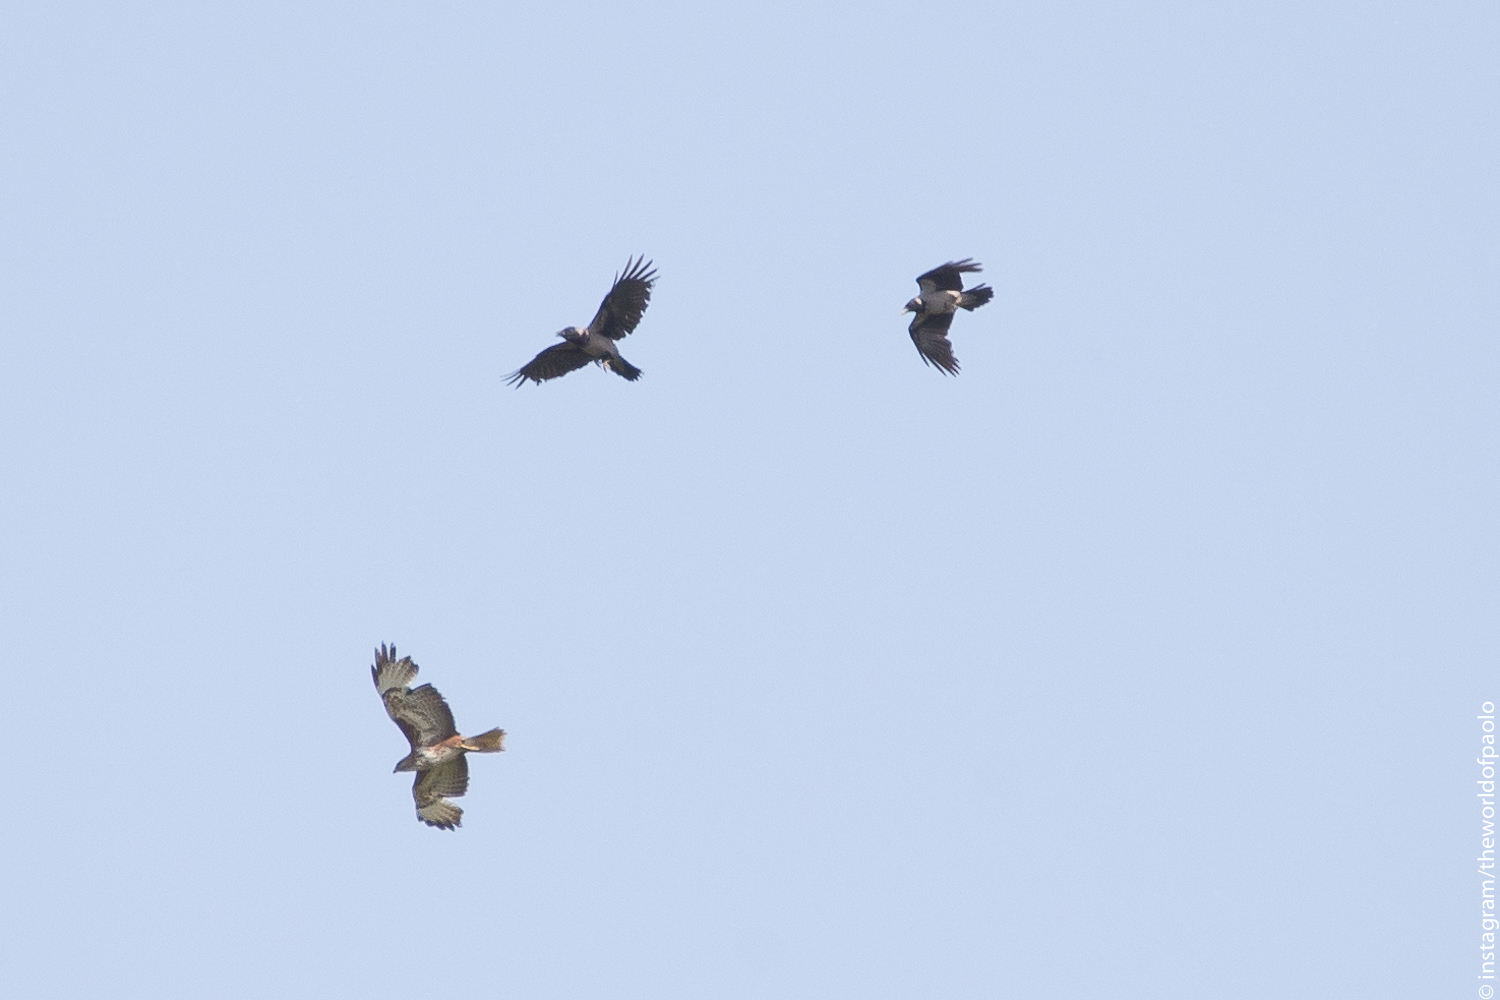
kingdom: Animalia
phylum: Chordata
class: Aves
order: Accipitriformes
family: Accipitridae
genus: Buteo
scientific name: Buteo buteo
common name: Common buzzard
